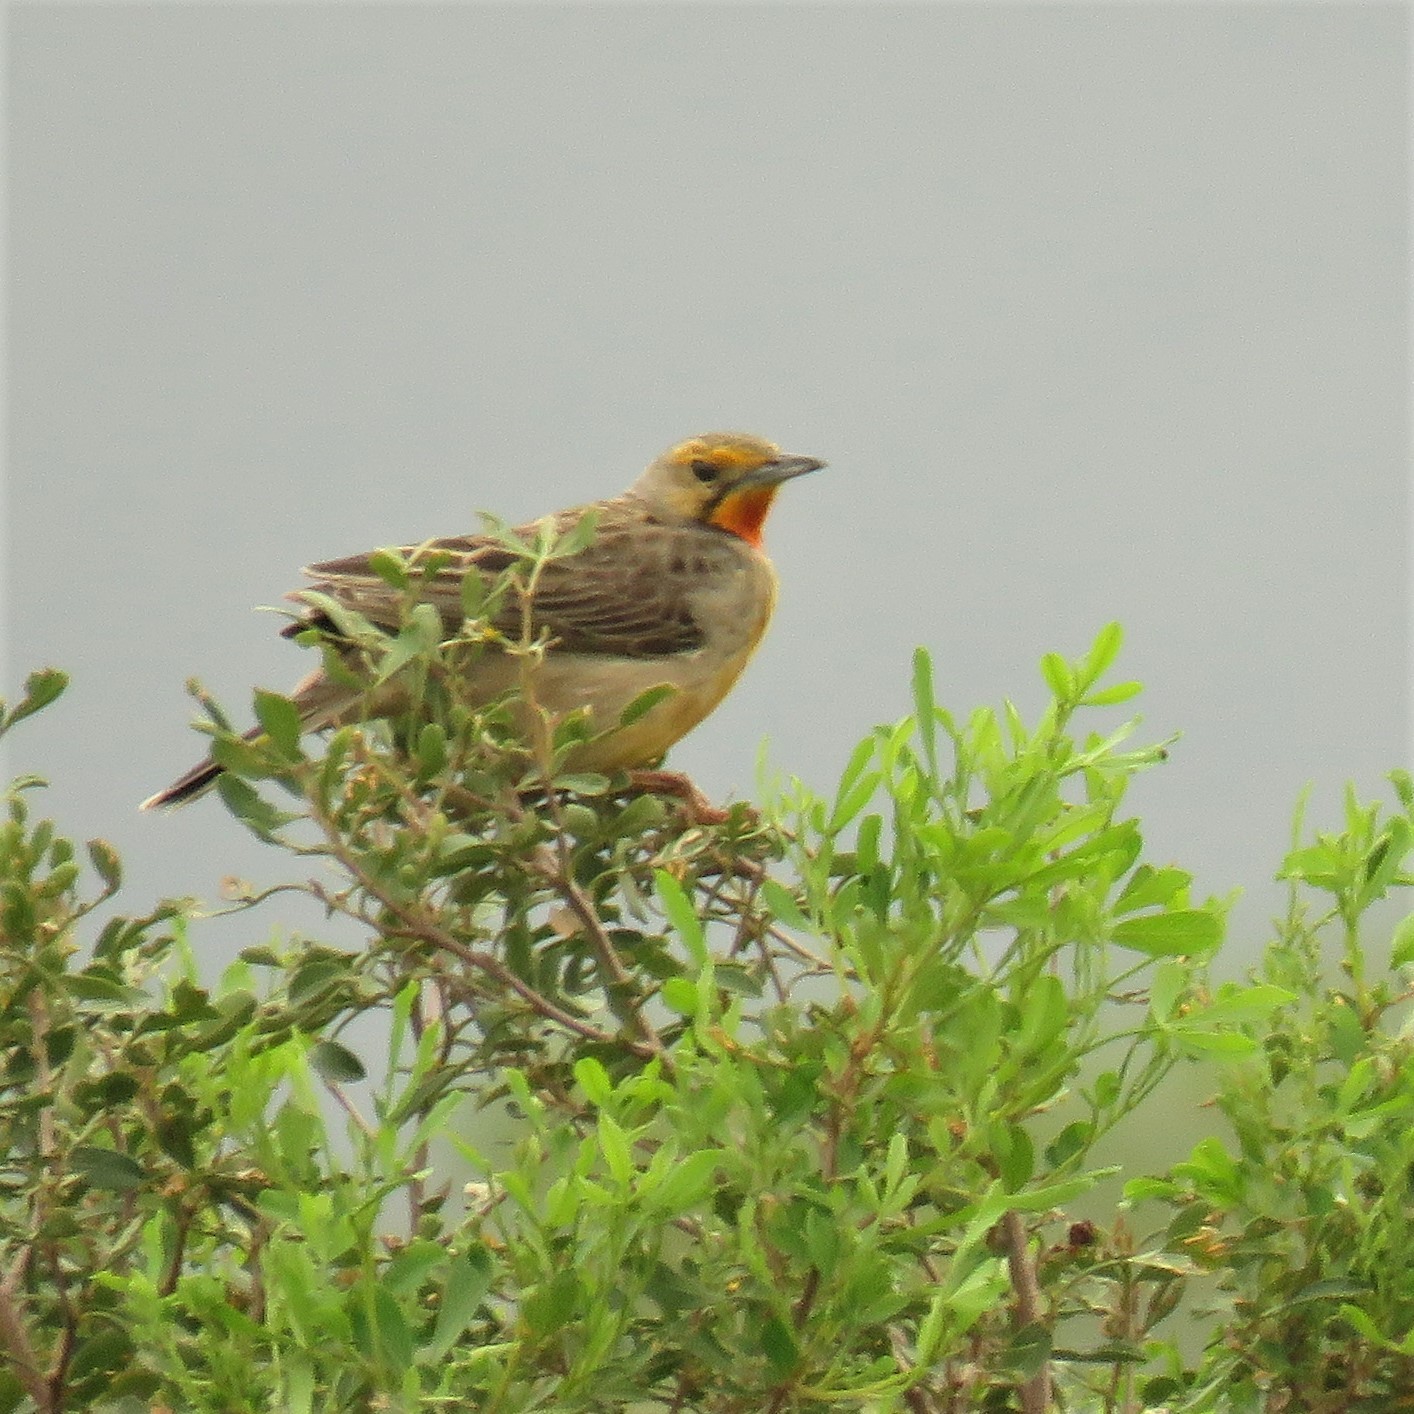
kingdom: Animalia
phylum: Chordata
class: Aves
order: Passeriformes
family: Motacillidae
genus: Macronyx
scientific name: Macronyx capensis
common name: Cape longclaw
